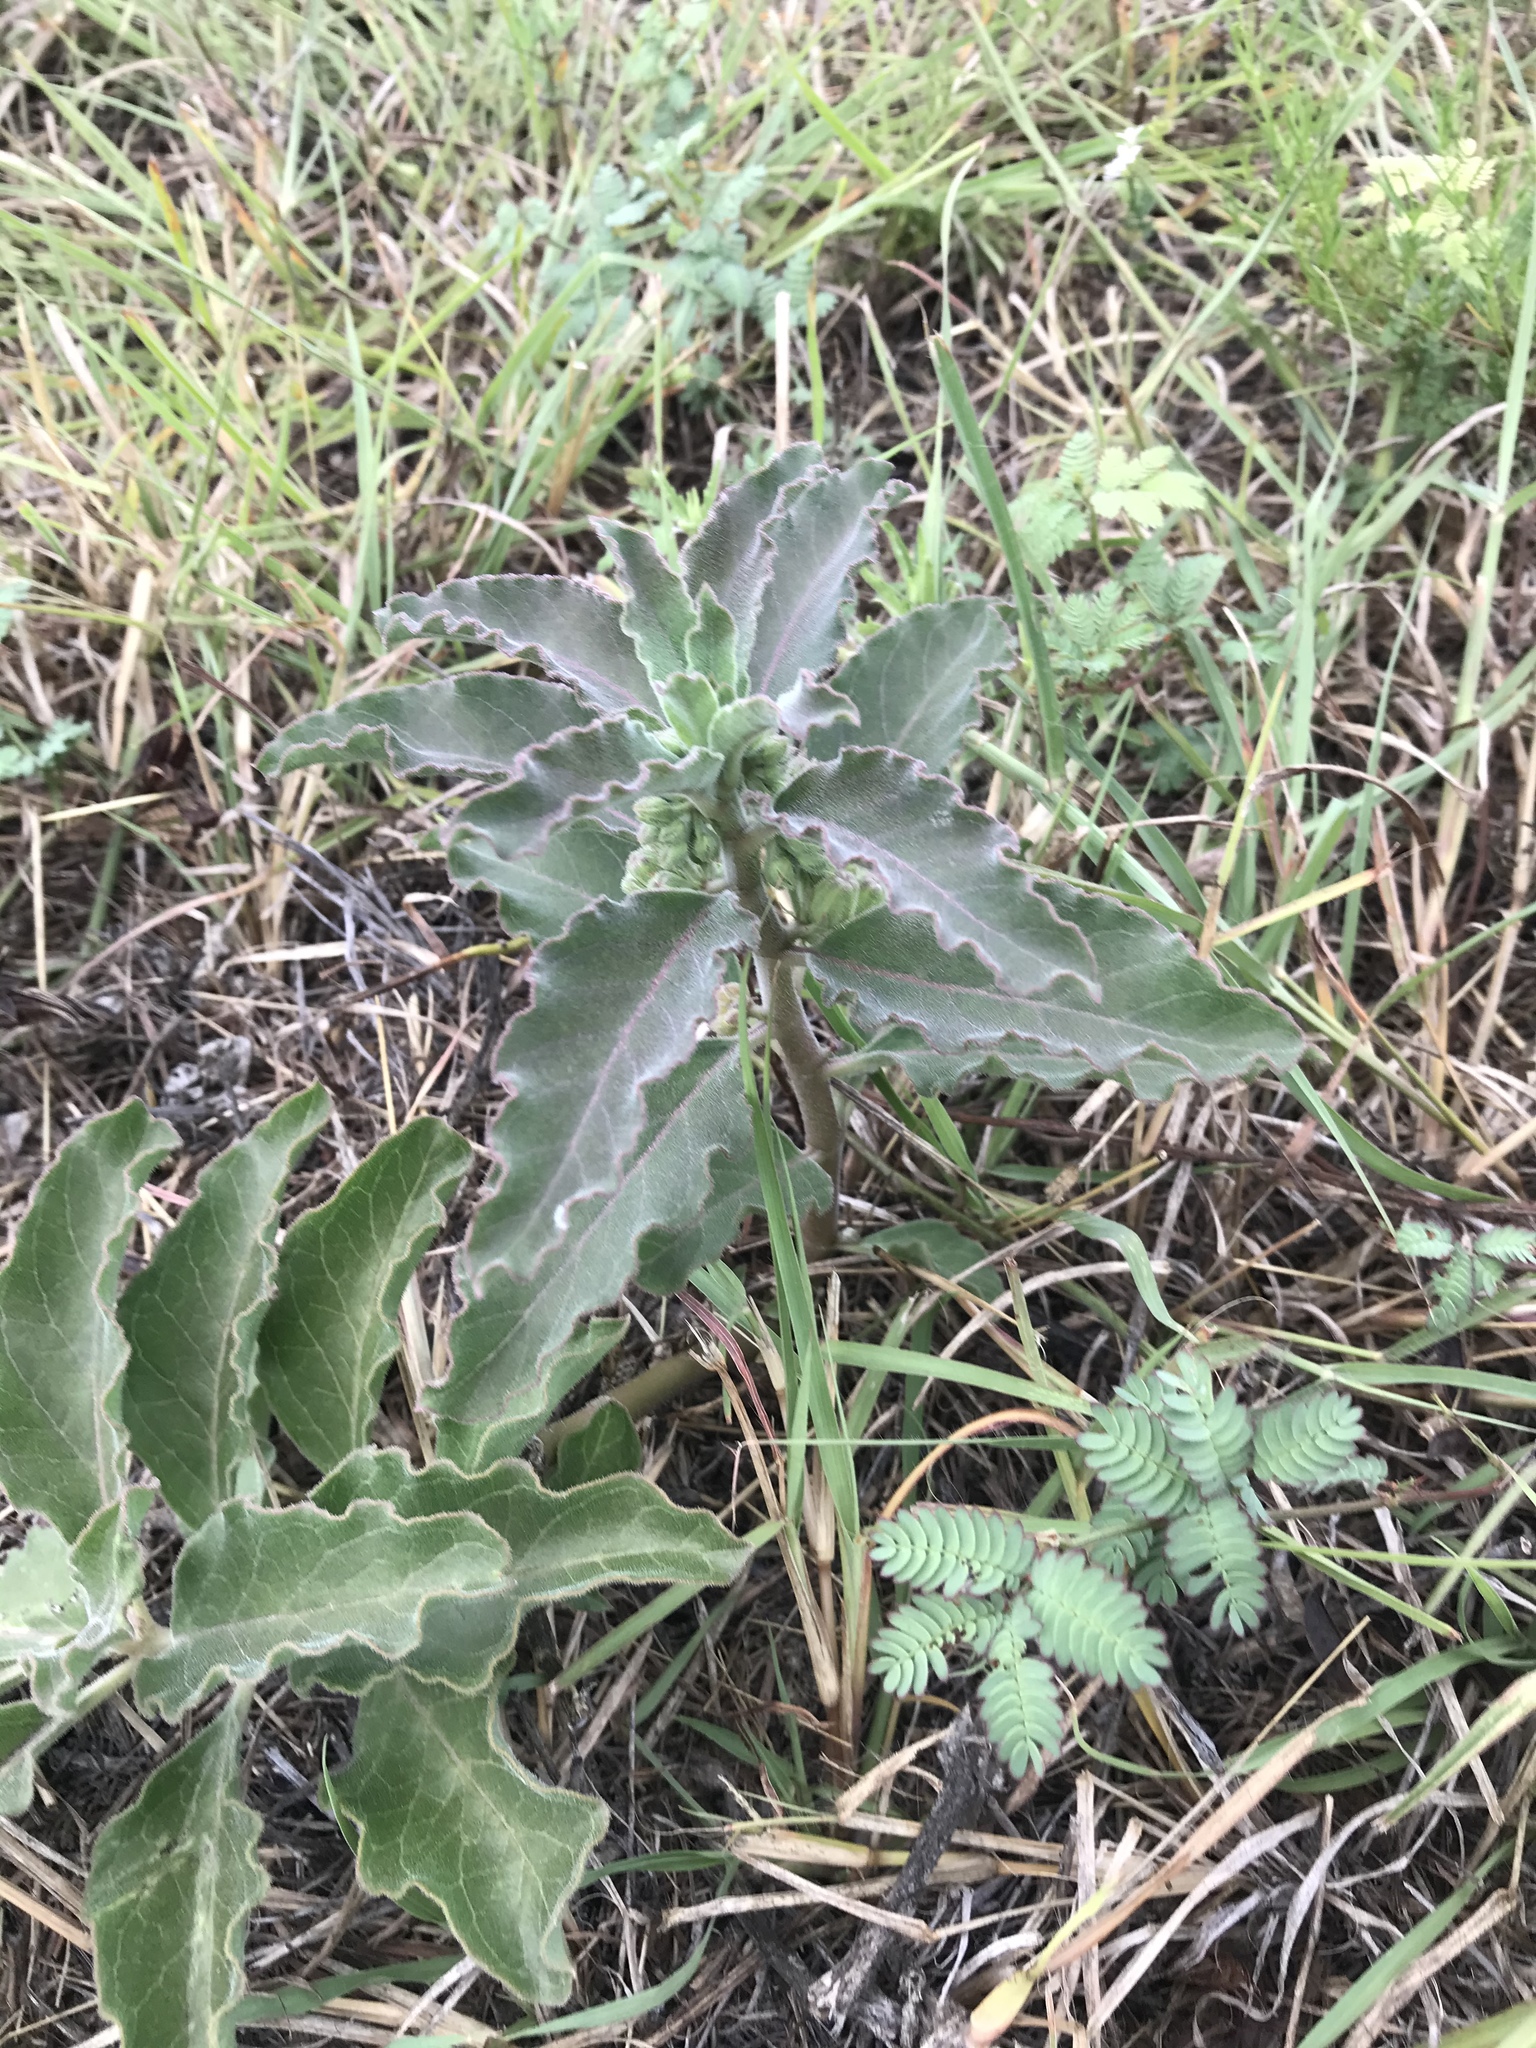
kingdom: Plantae
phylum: Tracheophyta
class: Magnoliopsida
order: Gentianales
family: Apocynaceae
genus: Asclepias
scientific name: Asclepias oenotheroides
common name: Zizotes milkweed
